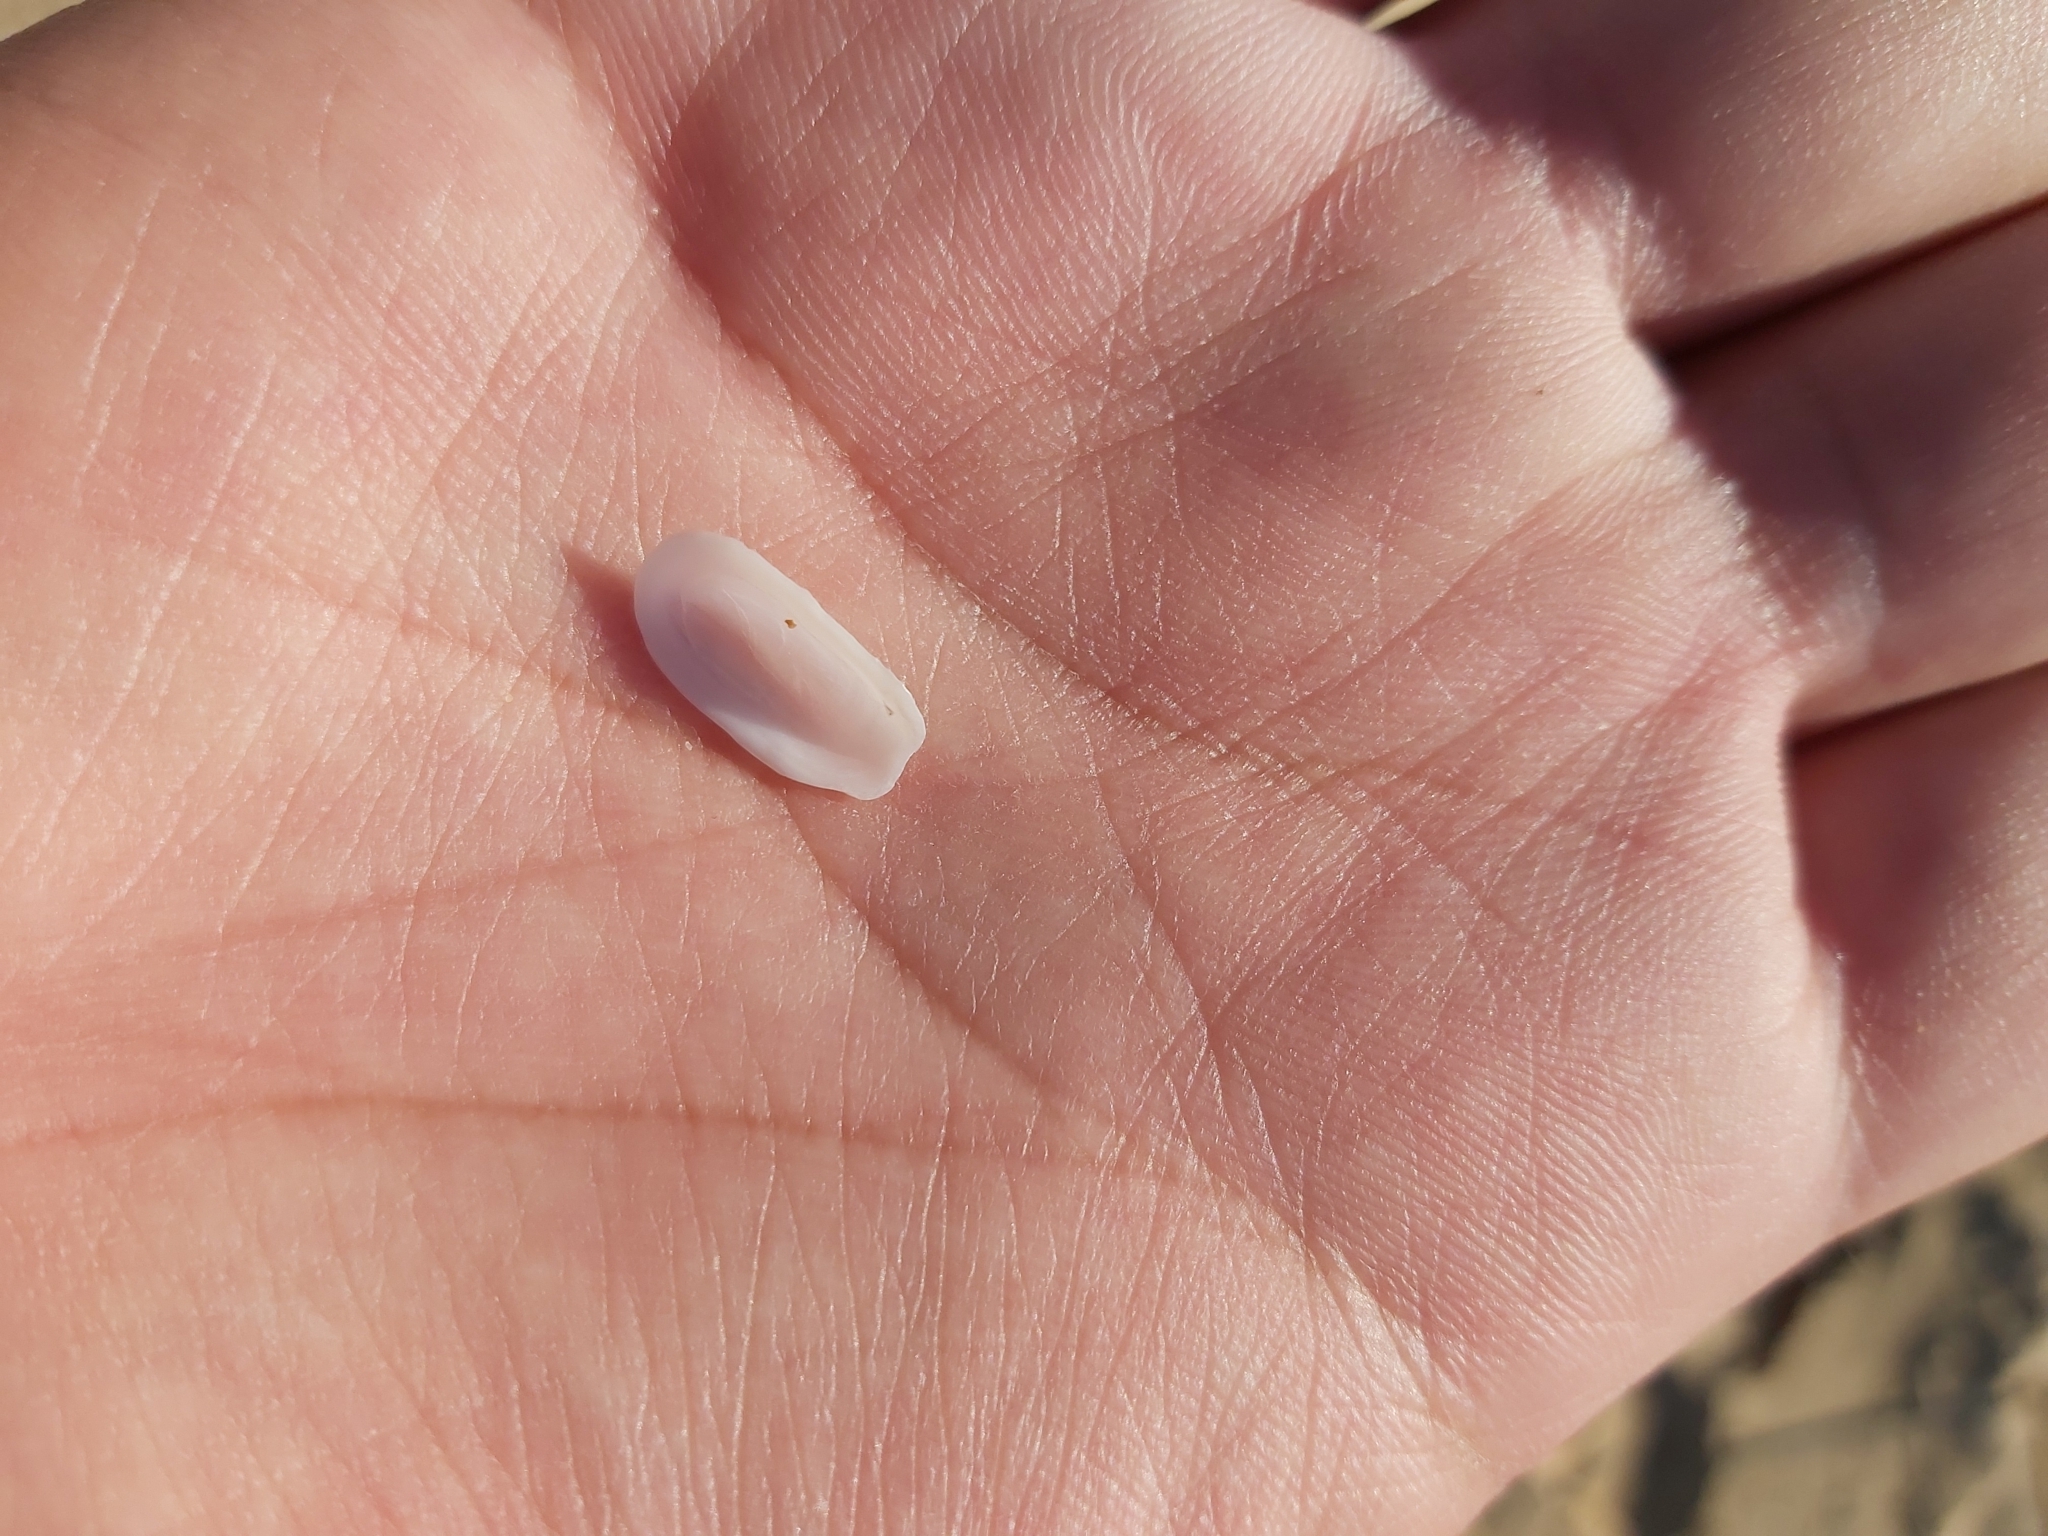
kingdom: Animalia
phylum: Mollusca
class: Gastropoda
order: Lepetellida
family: Fissurellidae
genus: Scutus
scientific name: Scutus antipodes
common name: Duckbill shell
